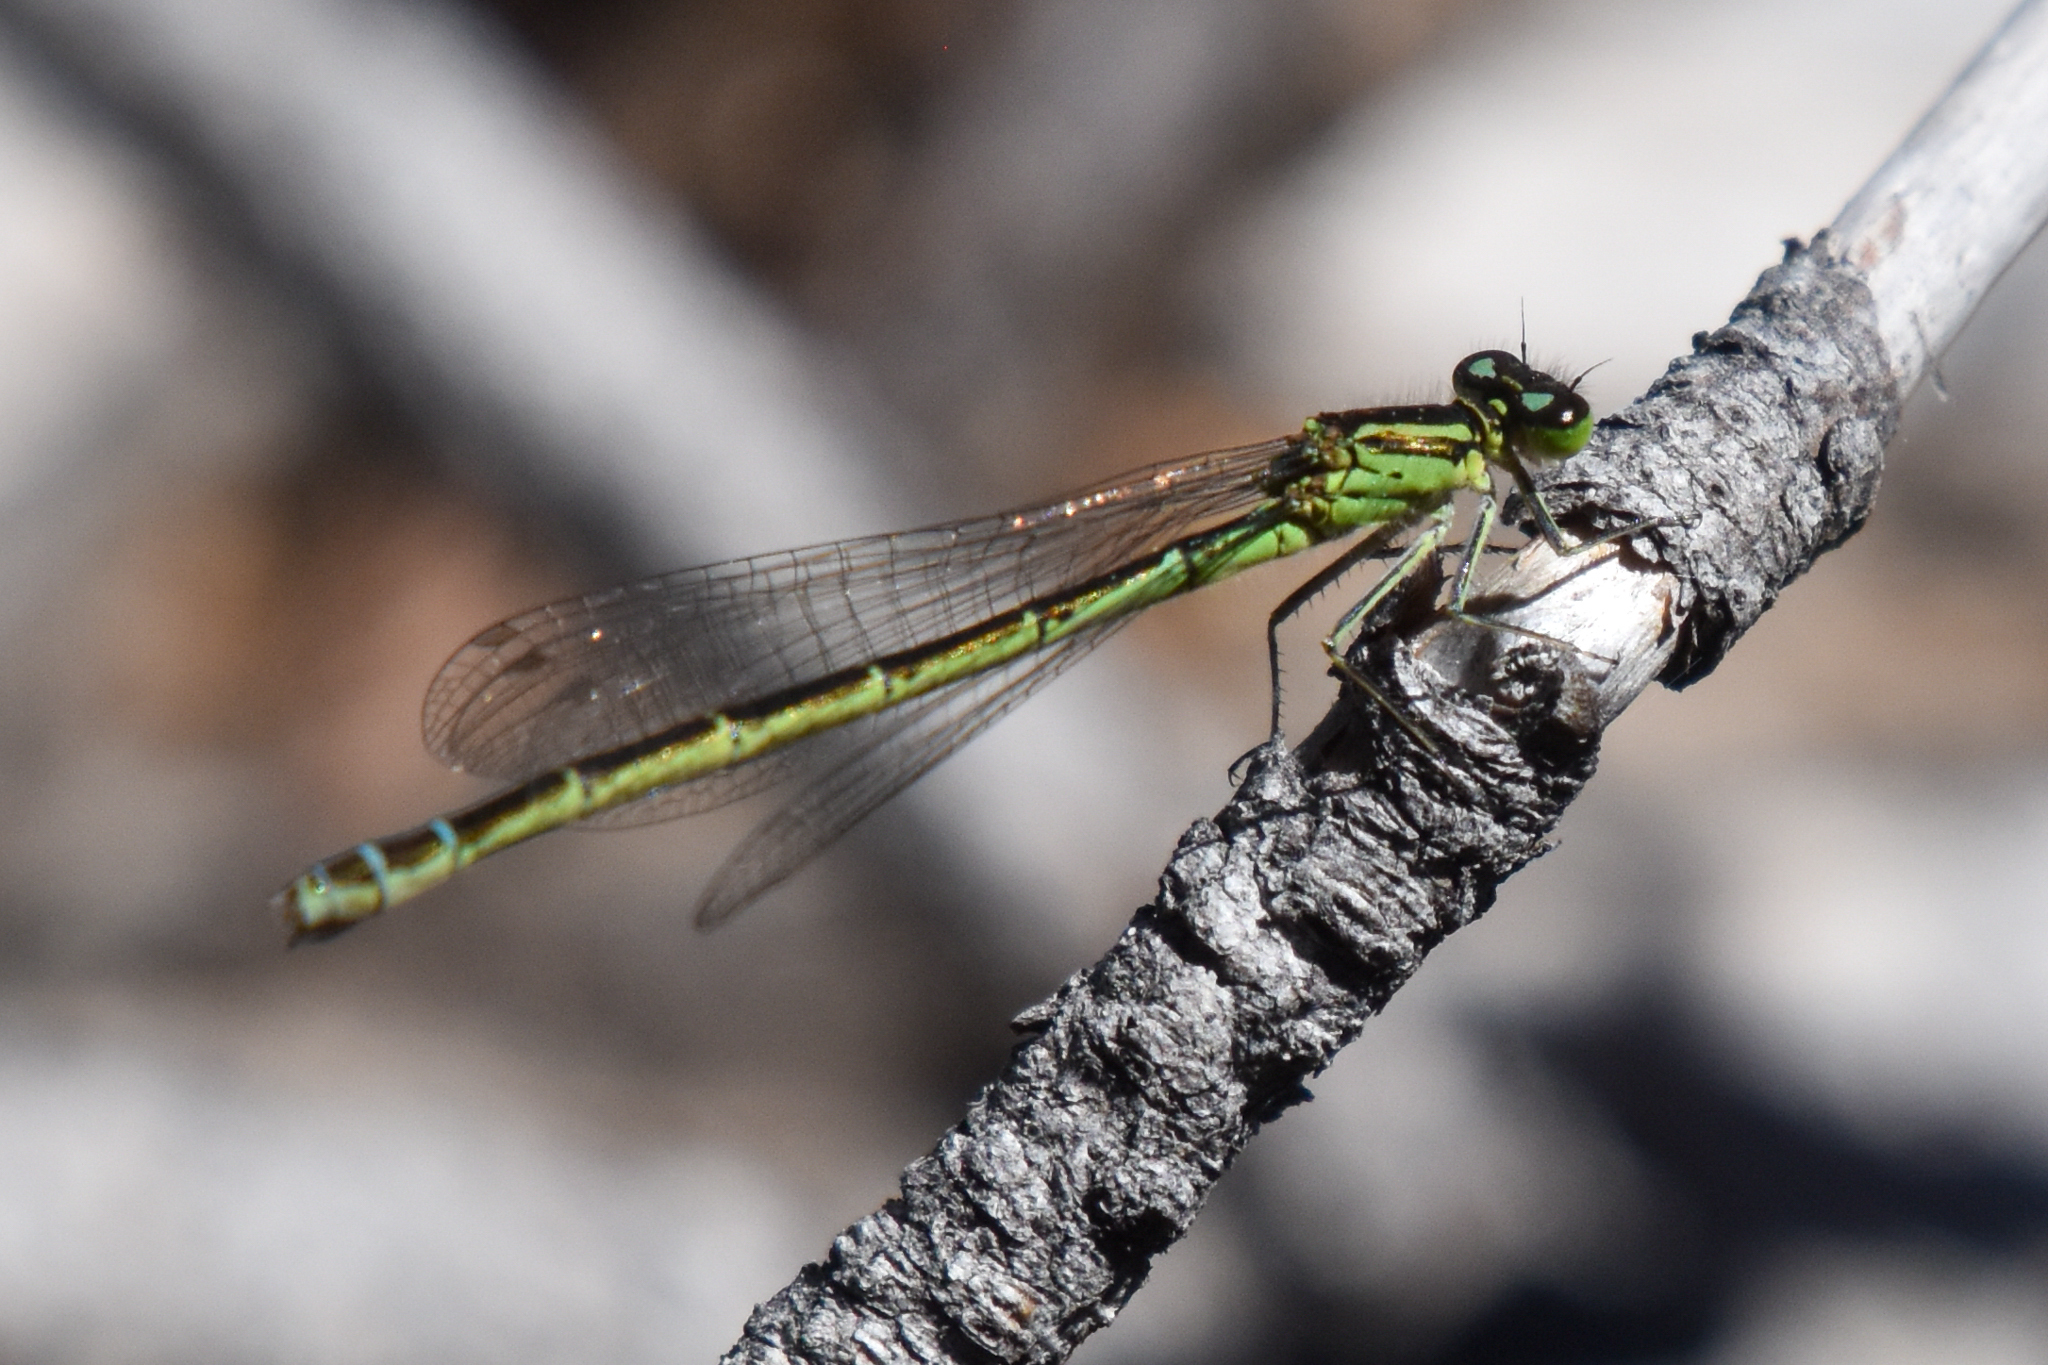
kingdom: Animalia
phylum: Arthropoda
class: Insecta
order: Odonata
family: Coenagrionidae
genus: Coenagrion
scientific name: Coenagrion resolutum
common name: Taiga bluet
